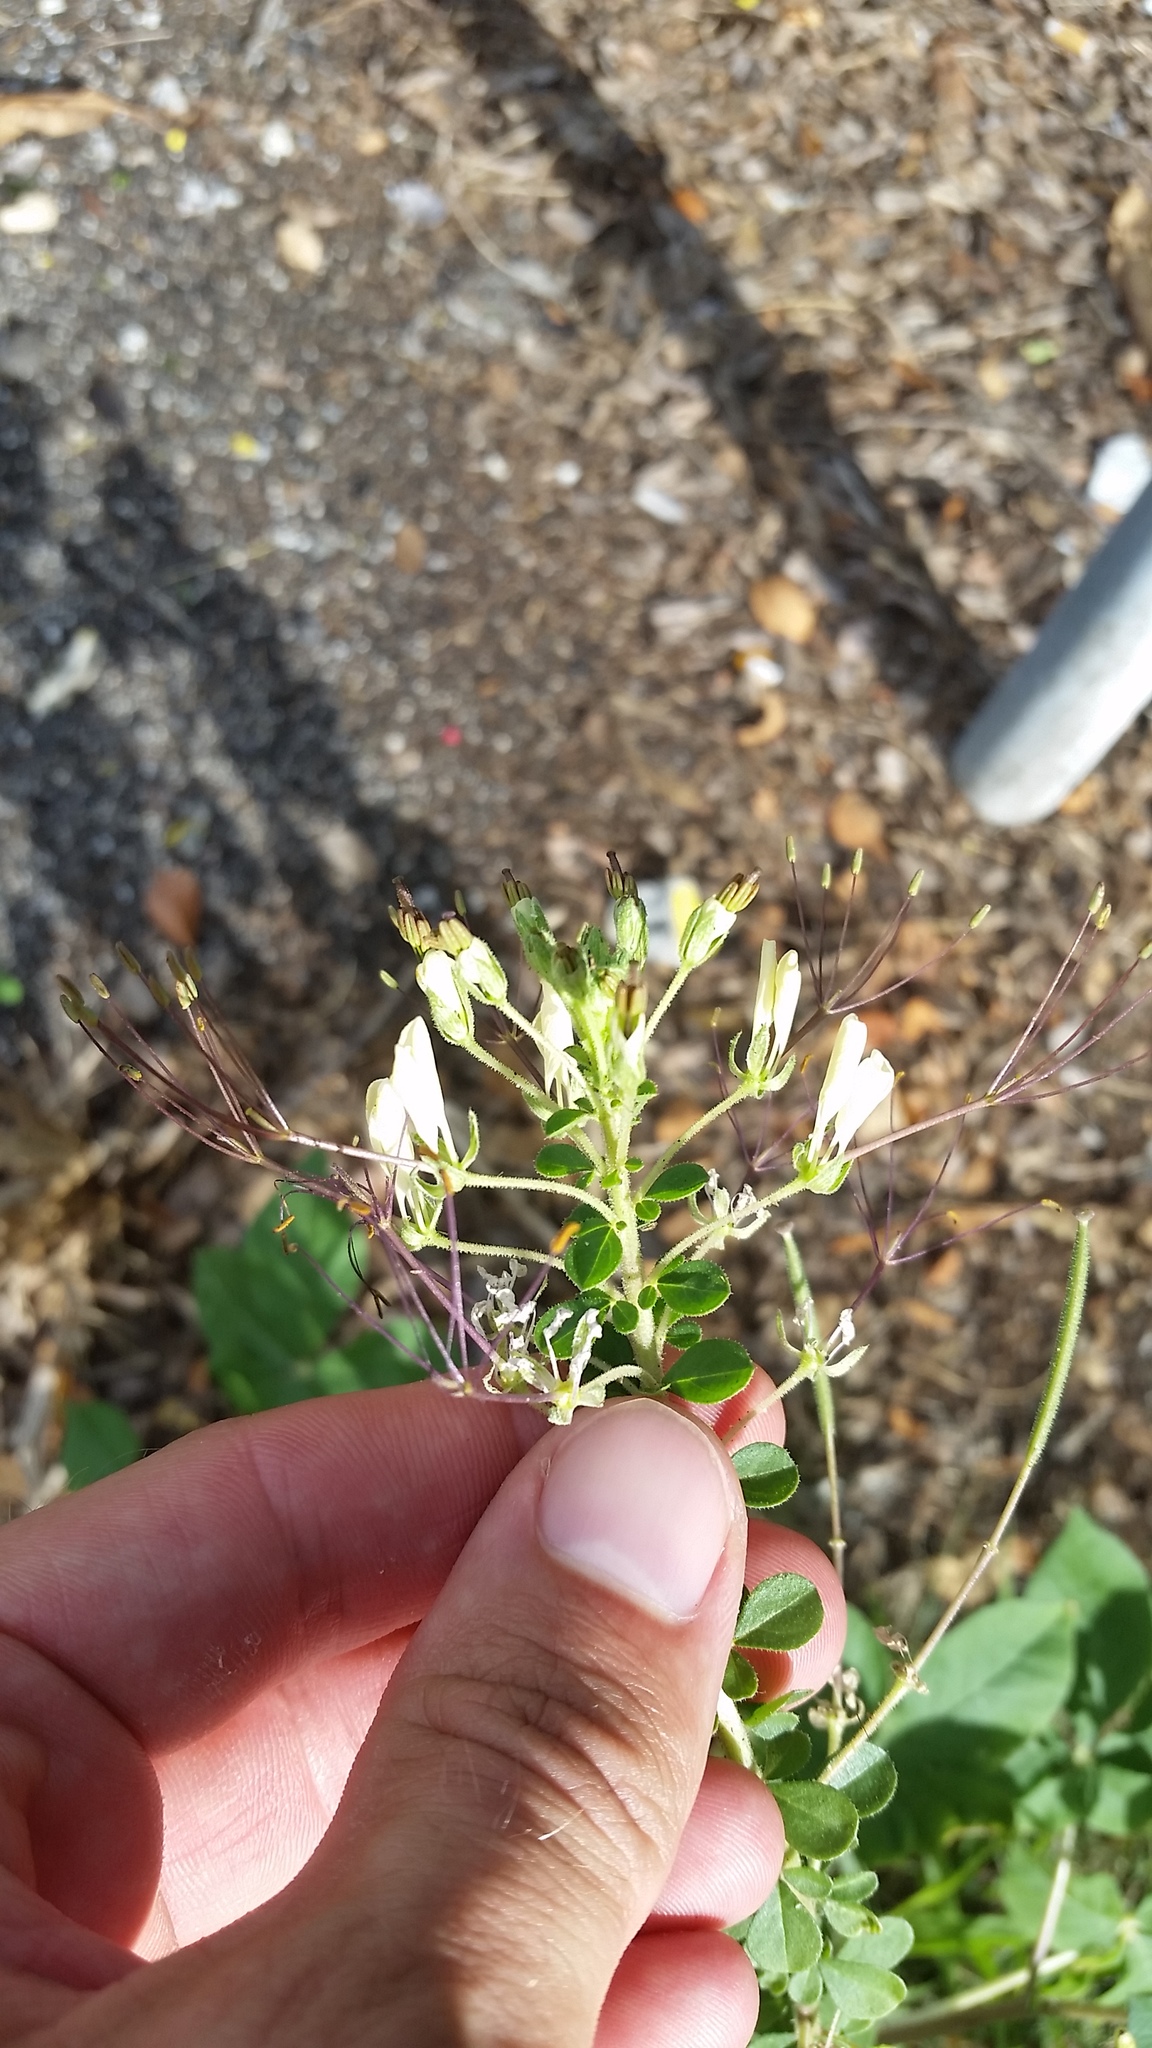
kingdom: Plantae
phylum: Tracheophyta
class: Magnoliopsida
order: Brassicales
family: Cleomaceae
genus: Gynandropsis
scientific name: Gynandropsis gynandra
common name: Spiderwisp
